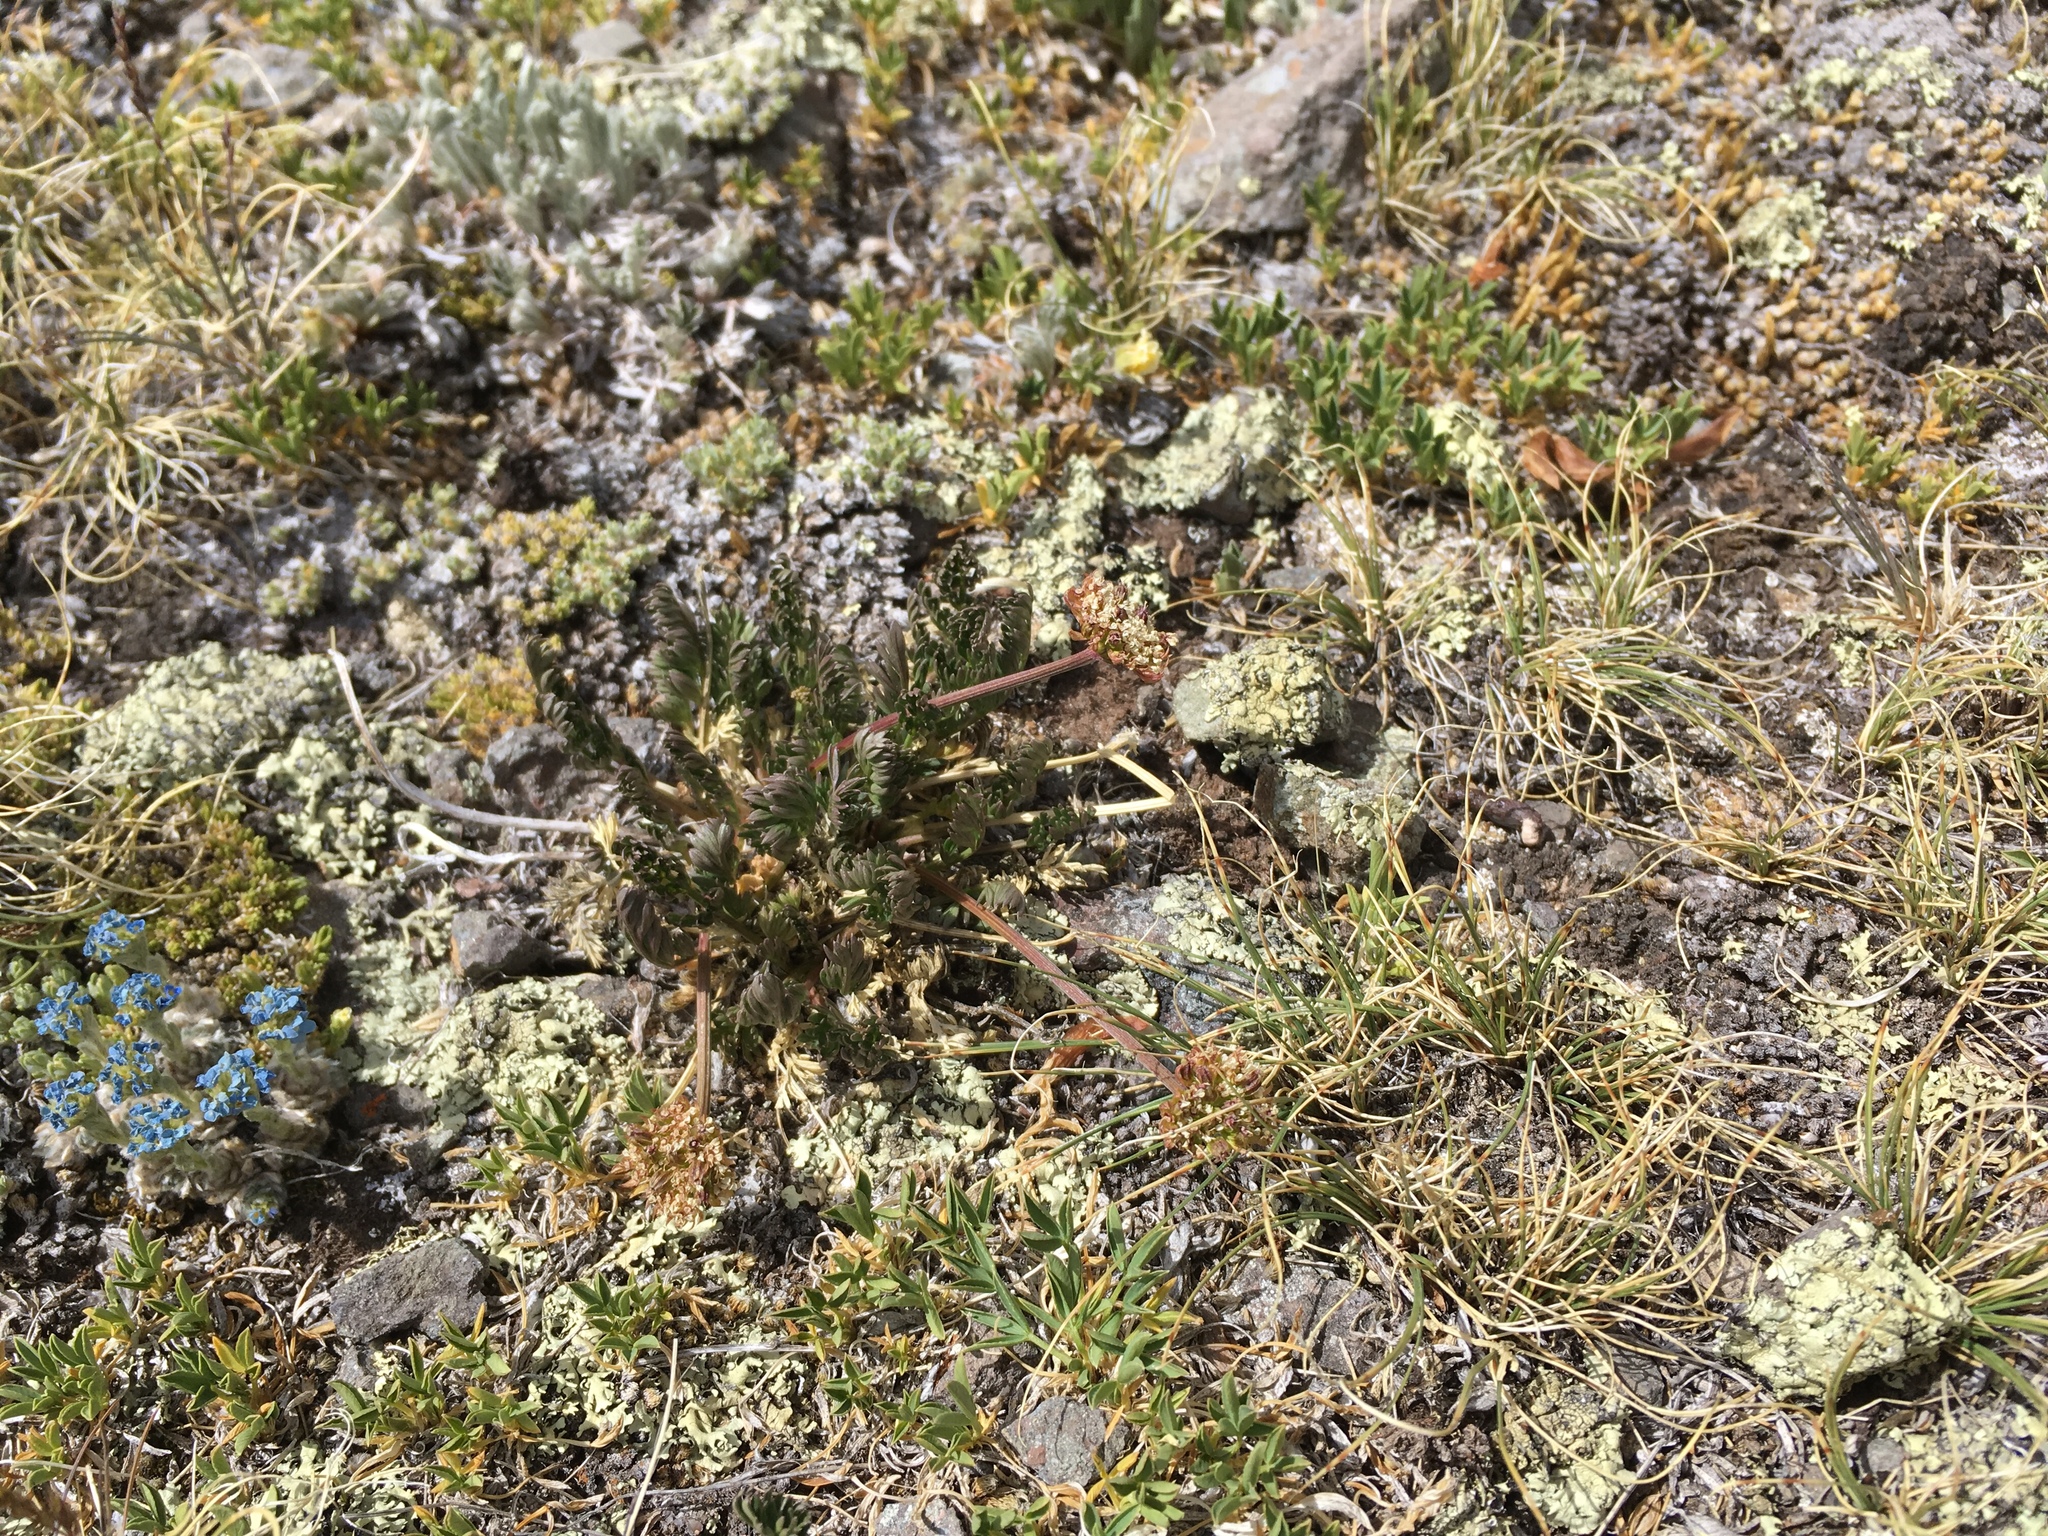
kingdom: Plantae
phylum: Tracheophyta
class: Magnoliopsida
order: Apiales
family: Apiaceae
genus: Oreoxis
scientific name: Oreoxis bakeri
